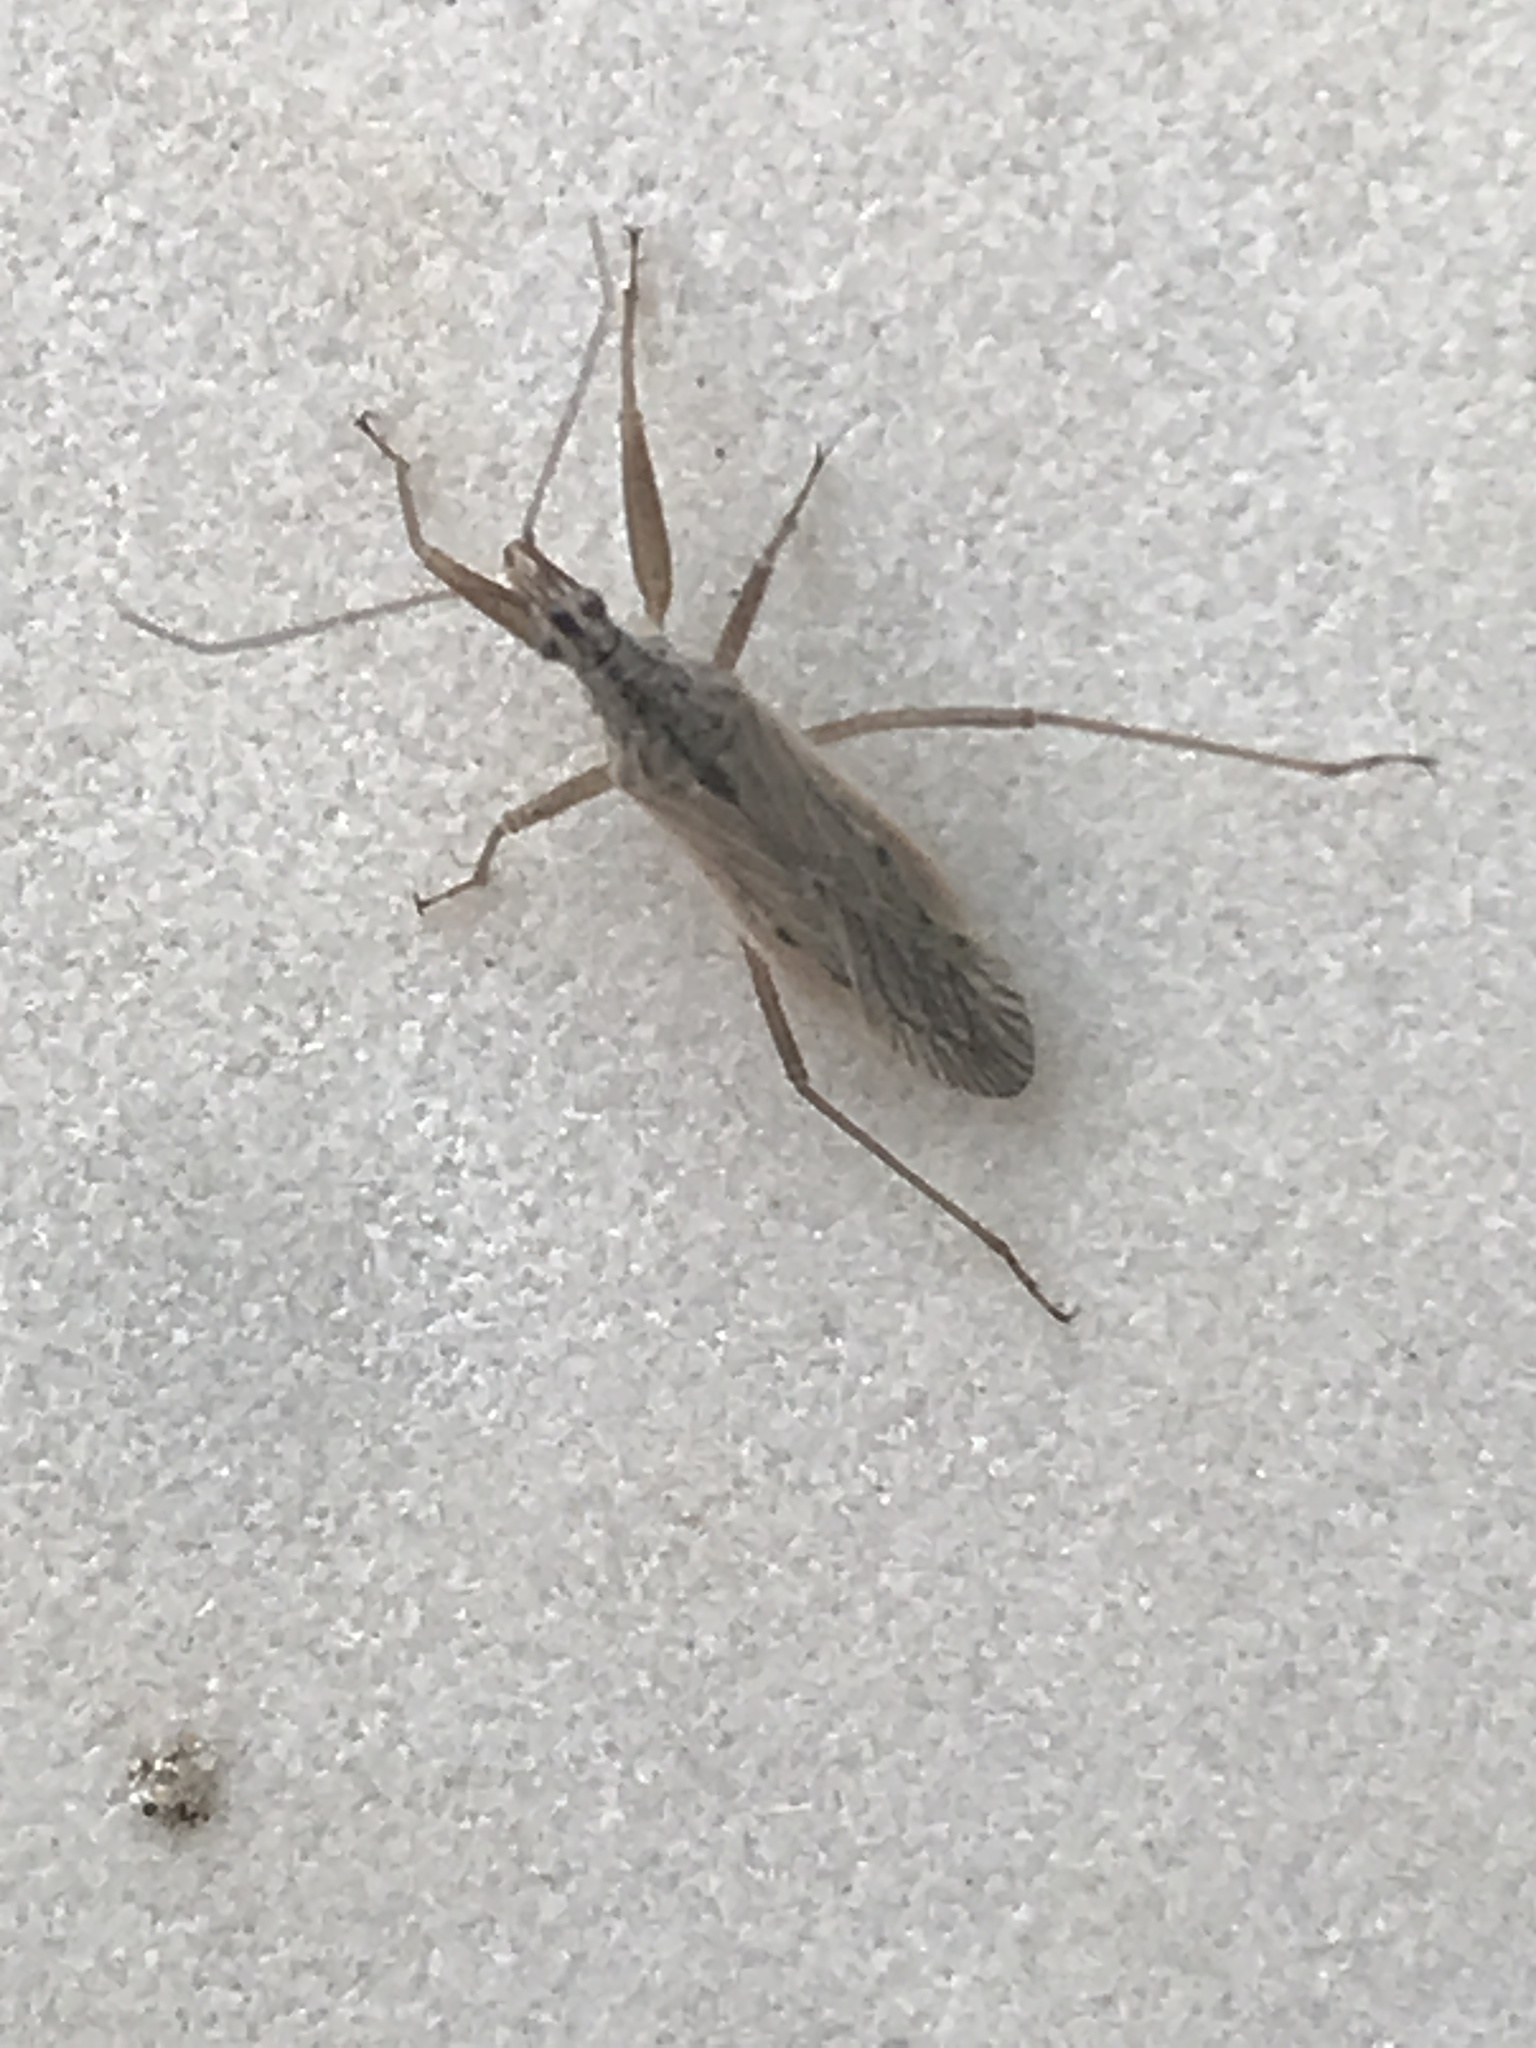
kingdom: Animalia
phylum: Arthropoda
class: Insecta
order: Hemiptera
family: Nabidae
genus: Nabis
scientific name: Nabis americoferus
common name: Common damsel bug
